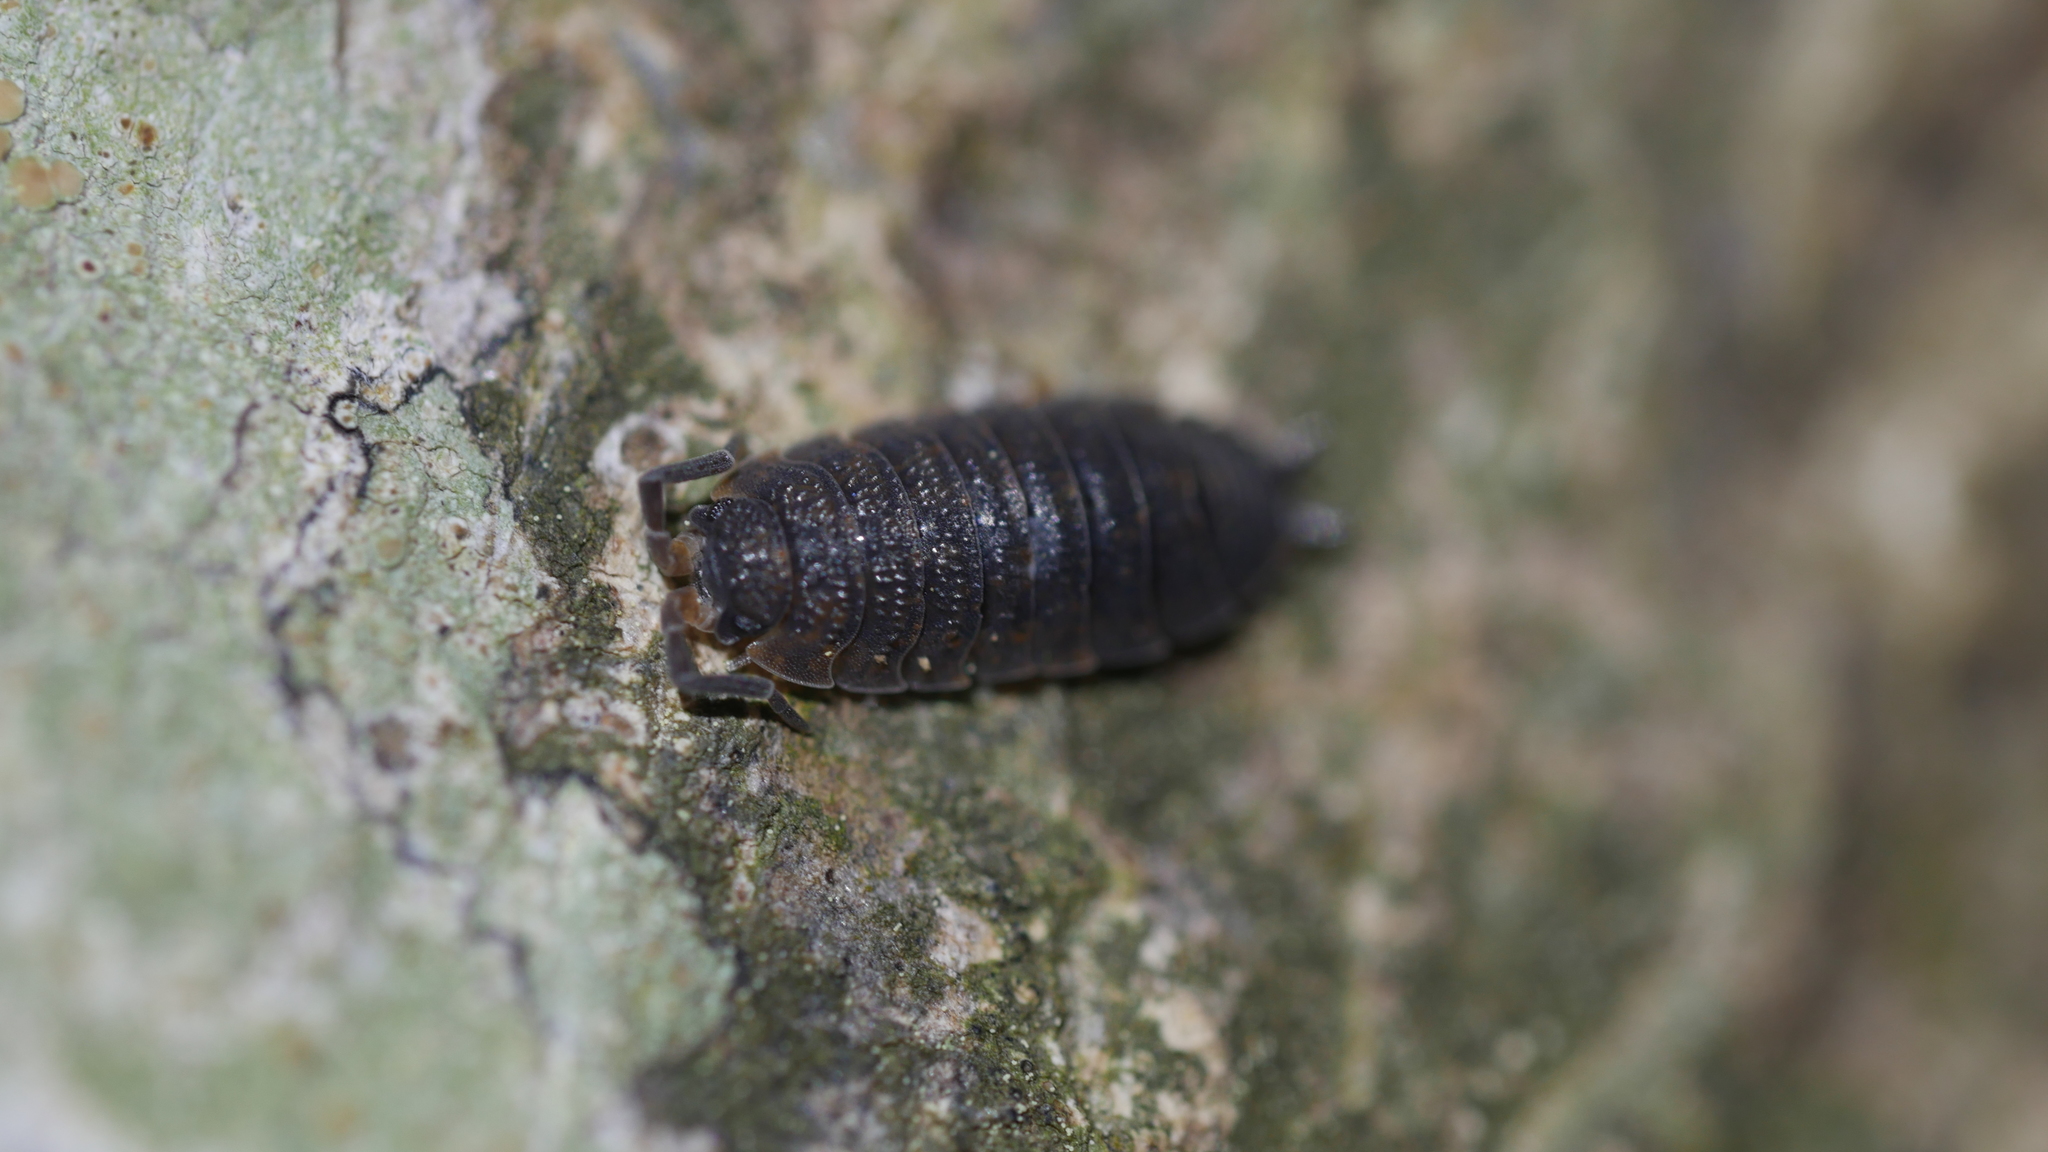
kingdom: Animalia
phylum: Arthropoda
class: Malacostraca
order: Isopoda
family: Porcellionidae
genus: Porcellio
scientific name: Porcellio scaber
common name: Common rough woodlouse
